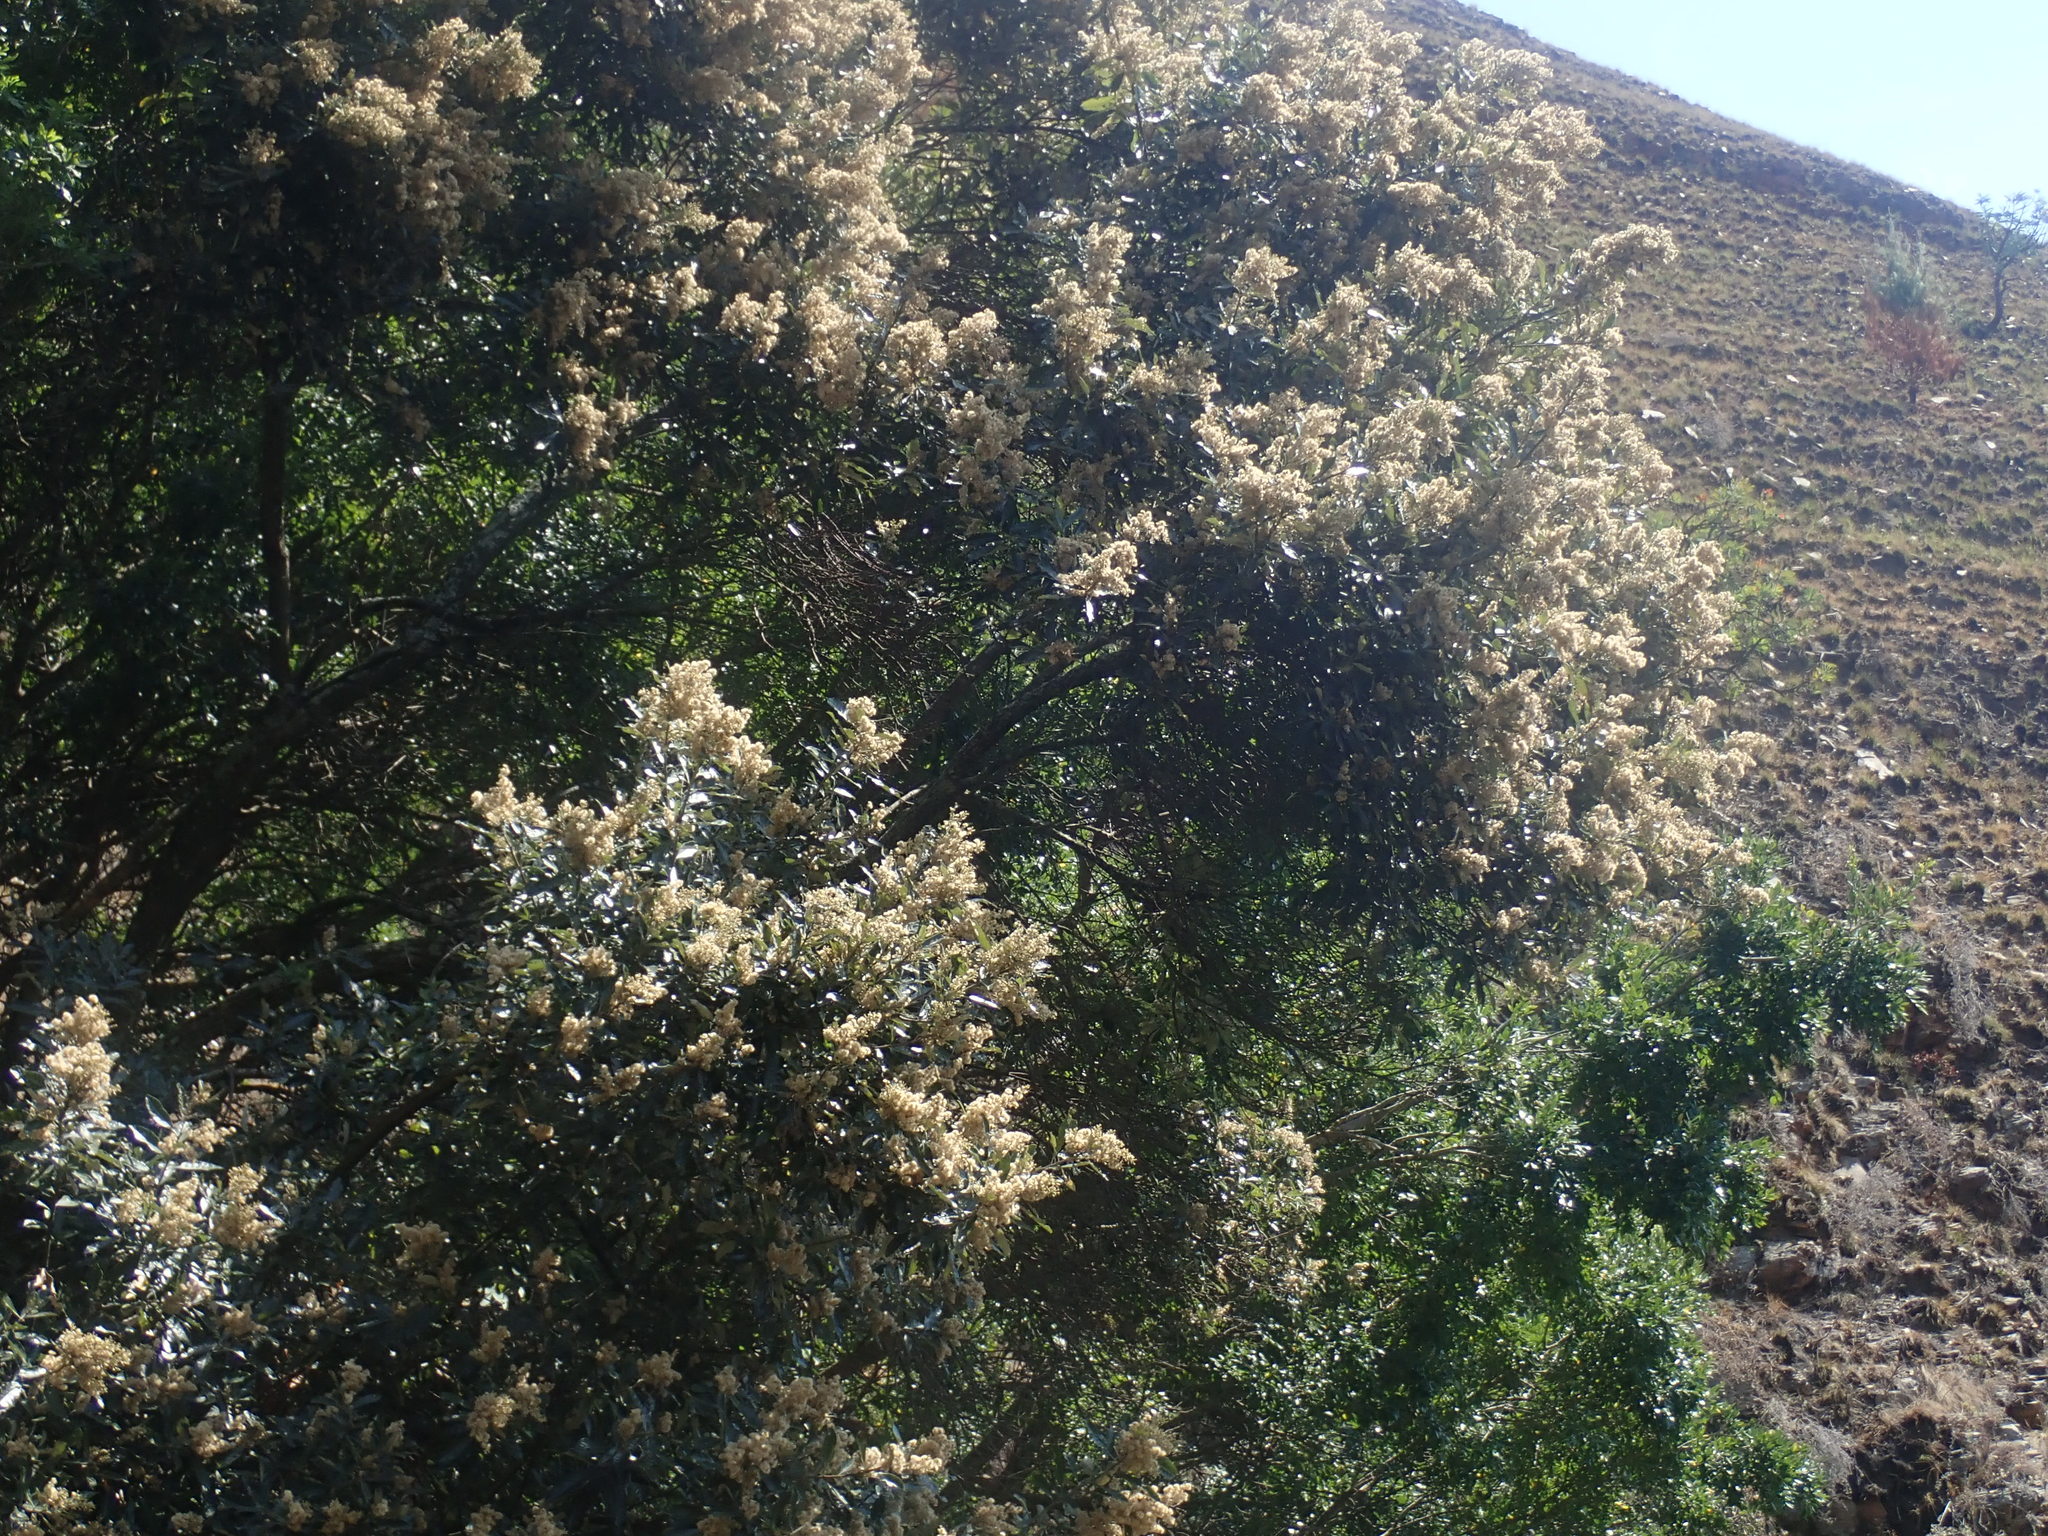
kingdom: Plantae
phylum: Tracheophyta
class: Magnoliopsida
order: Asterales
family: Asteraceae
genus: Brachylaena
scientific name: Brachylaena discolor
